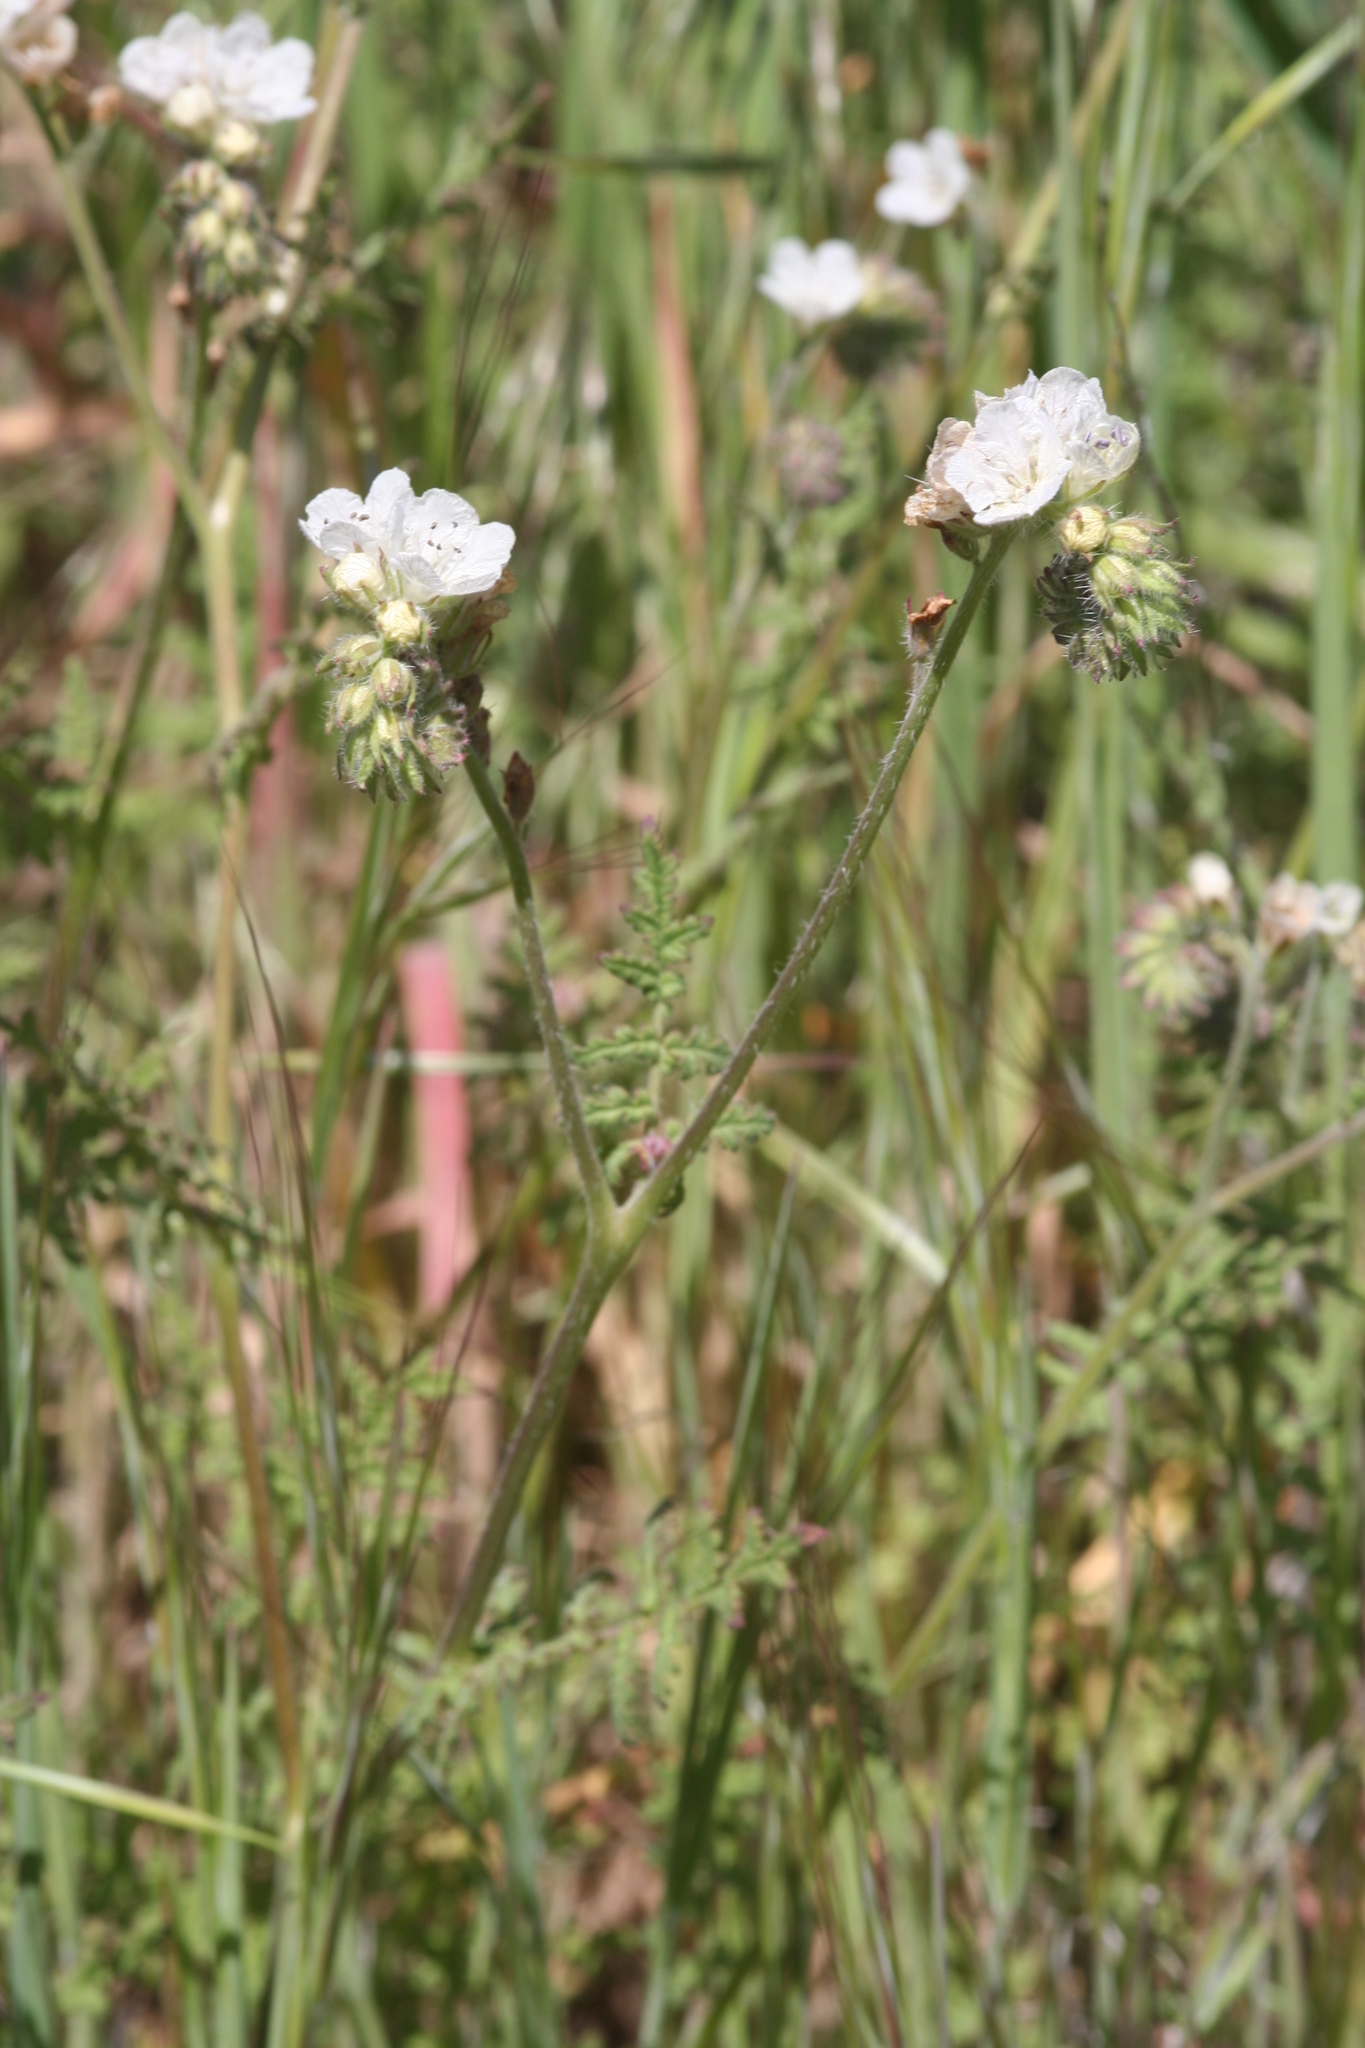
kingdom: Plantae
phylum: Tracheophyta
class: Magnoliopsida
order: Boraginales
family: Hydrophyllaceae
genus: Phacelia
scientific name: Phacelia distans
